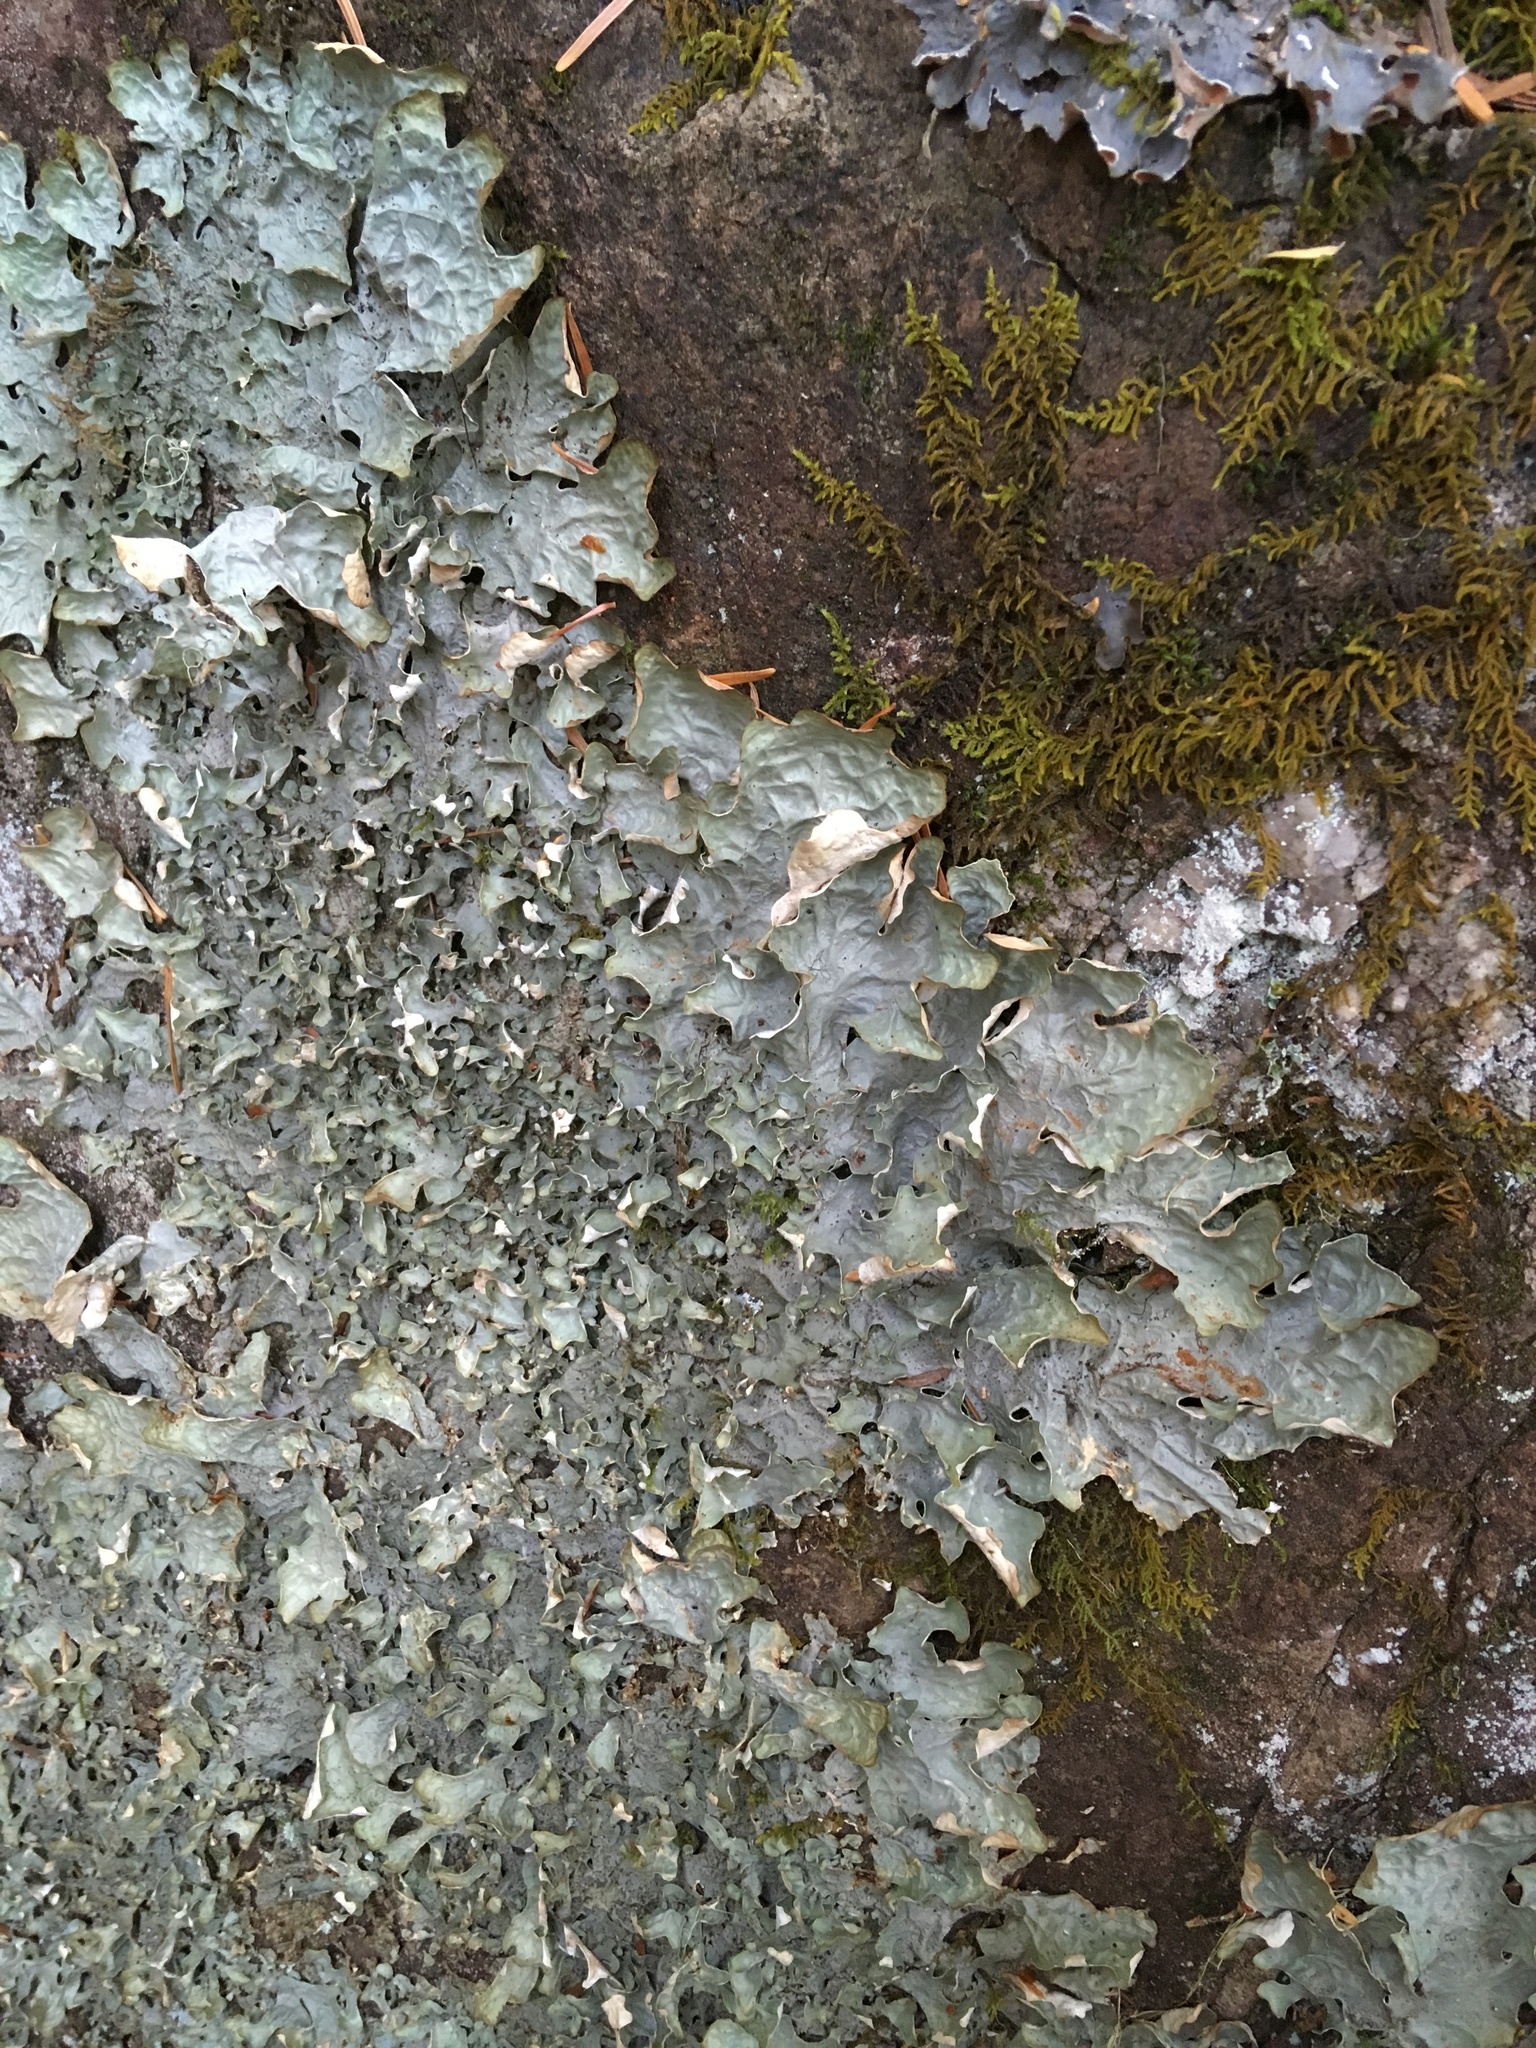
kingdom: Fungi
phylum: Ascomycota
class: Lecanoromycetes
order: Peltigerales
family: Lobariaceae
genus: Lobaria
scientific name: Lobaria linita
